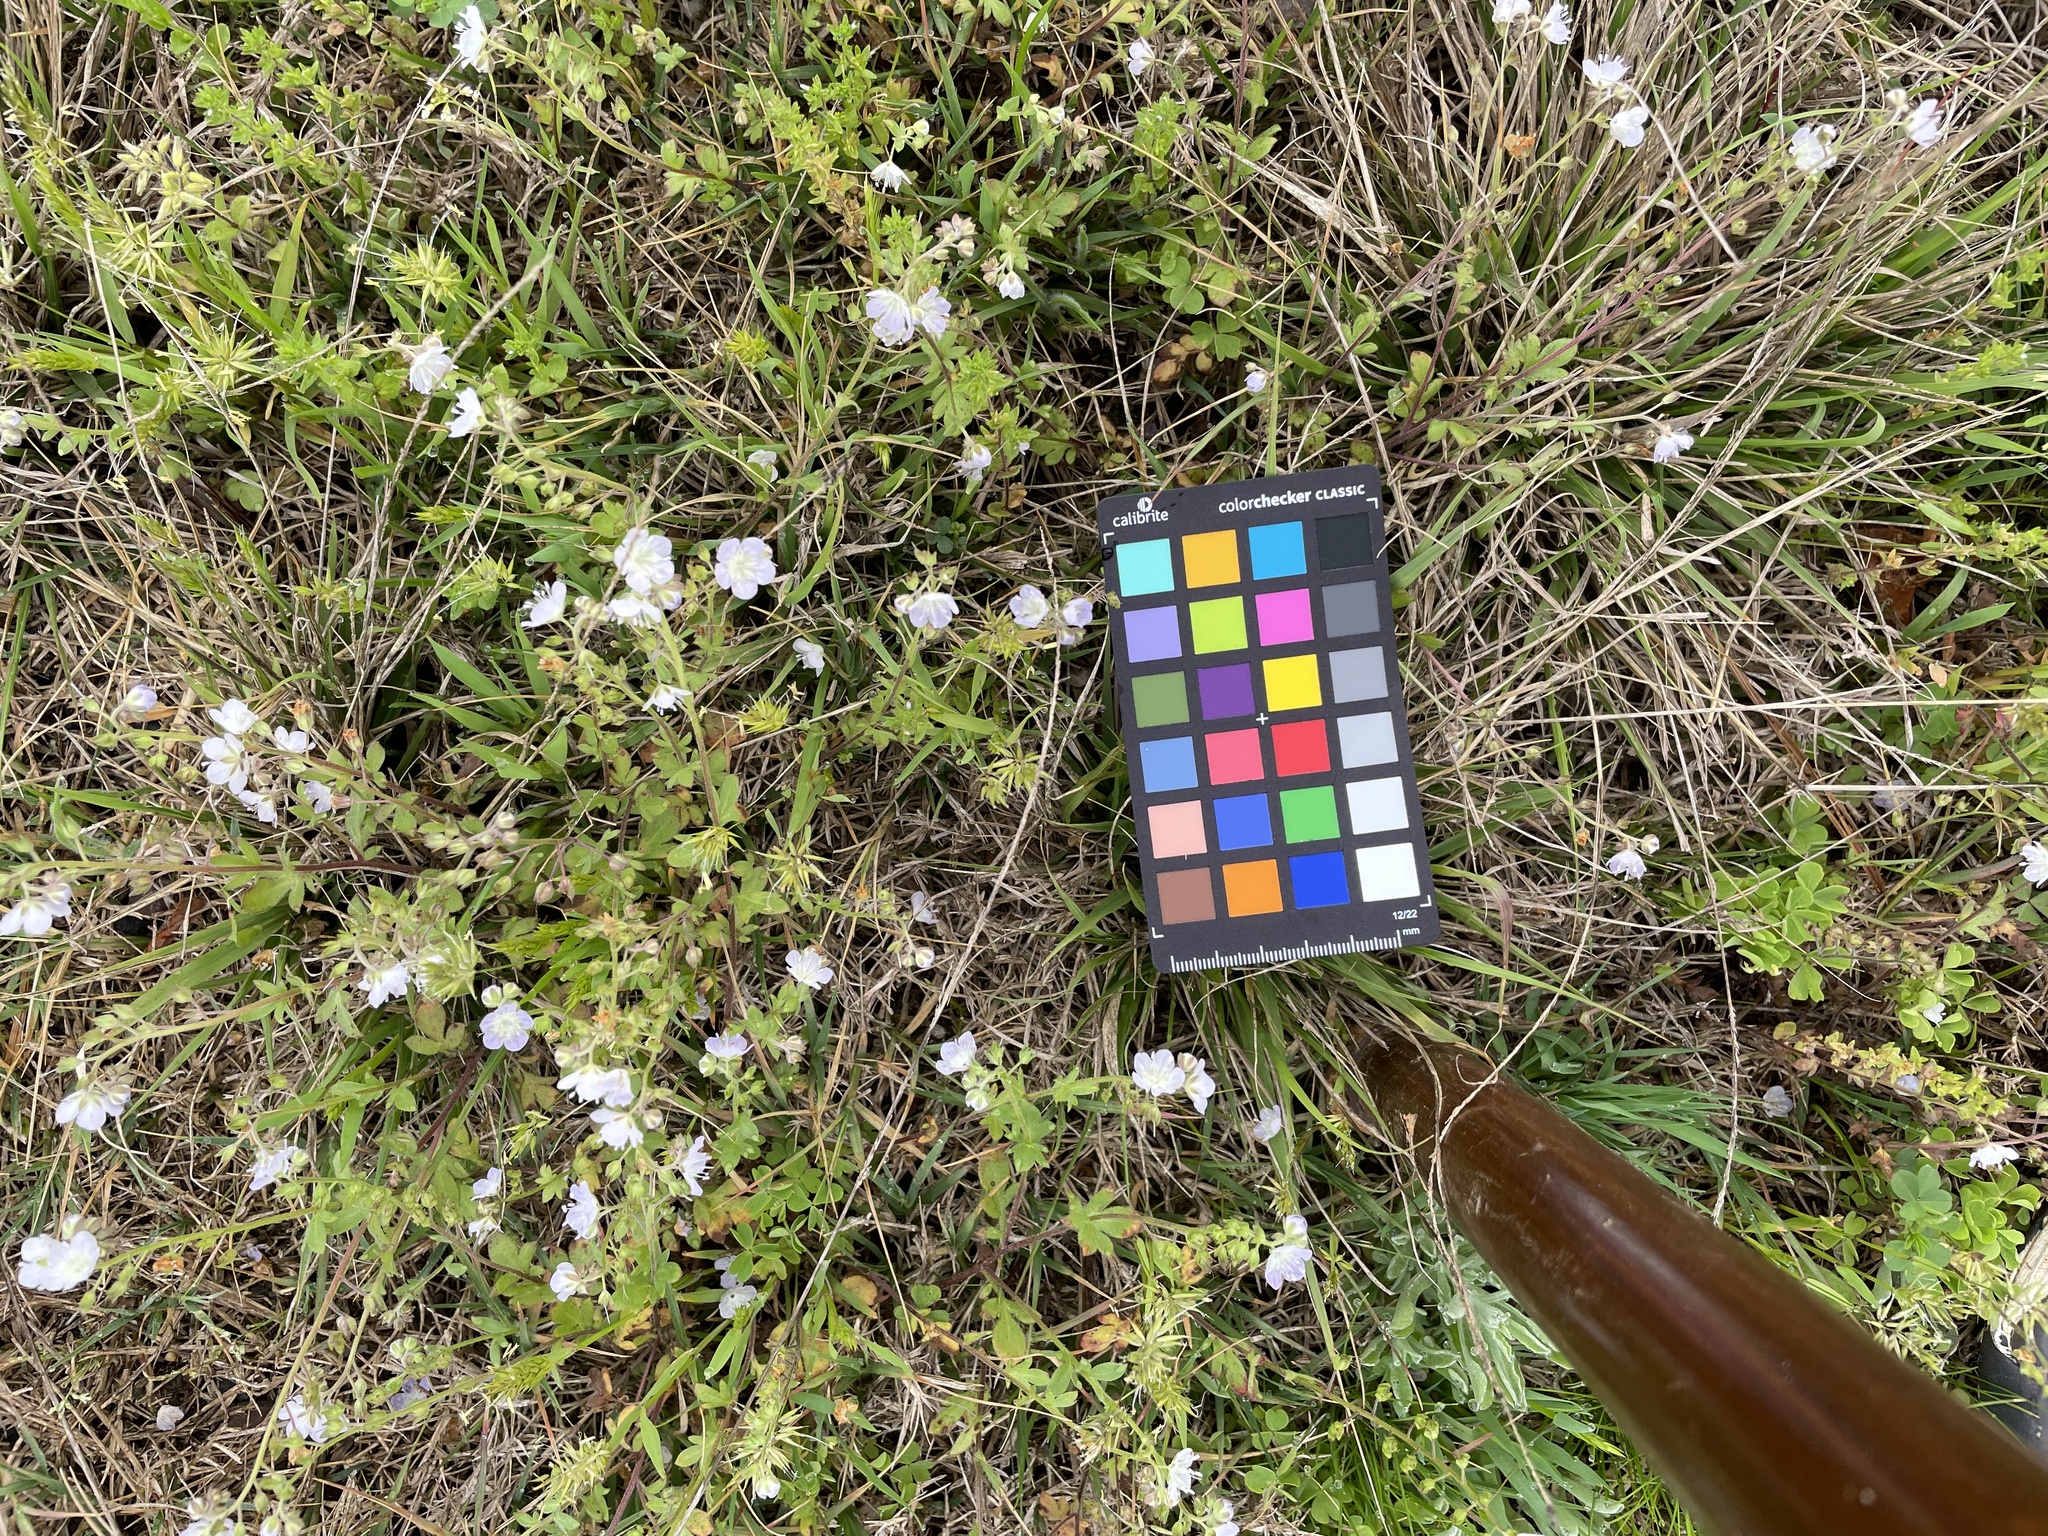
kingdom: Plantae
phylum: Tracheophyta
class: Magnoliopsida
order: Boraginales
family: Hydrophyllaceae
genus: Phacelia
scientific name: Phacelia dubia
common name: Appalachian phacelia
